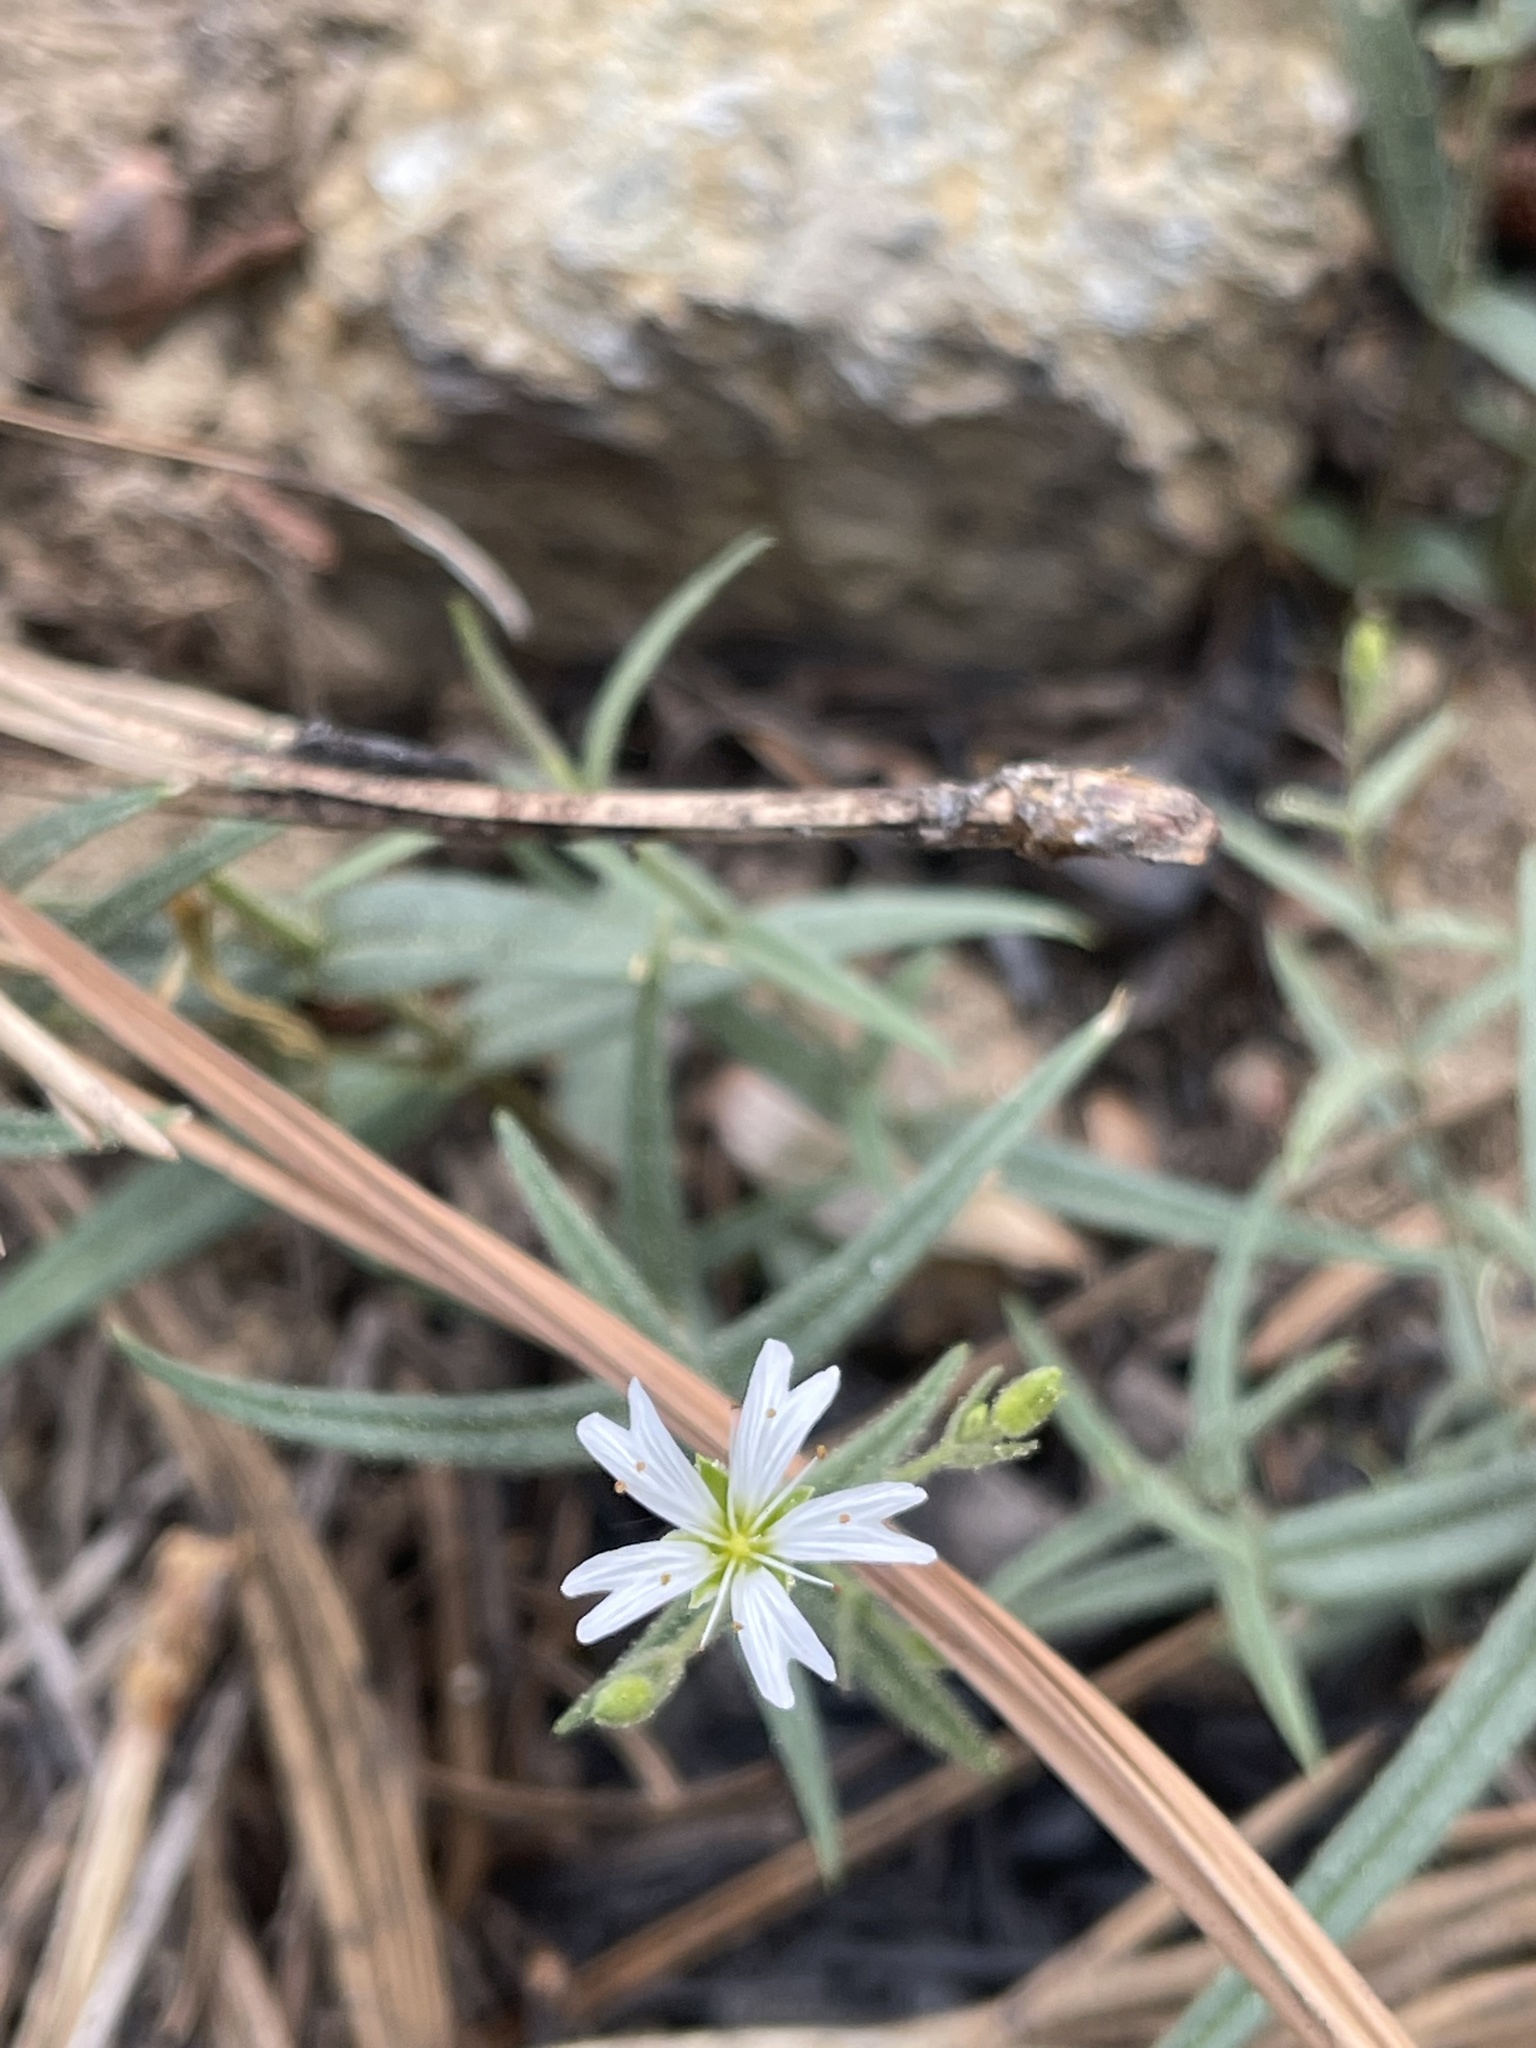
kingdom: Plantae
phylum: Tracheophyta
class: Magnoliopsida
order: Caryophyllales
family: Caryophyllaceae
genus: Schizotechium
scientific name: Schizotechium jamesianum
